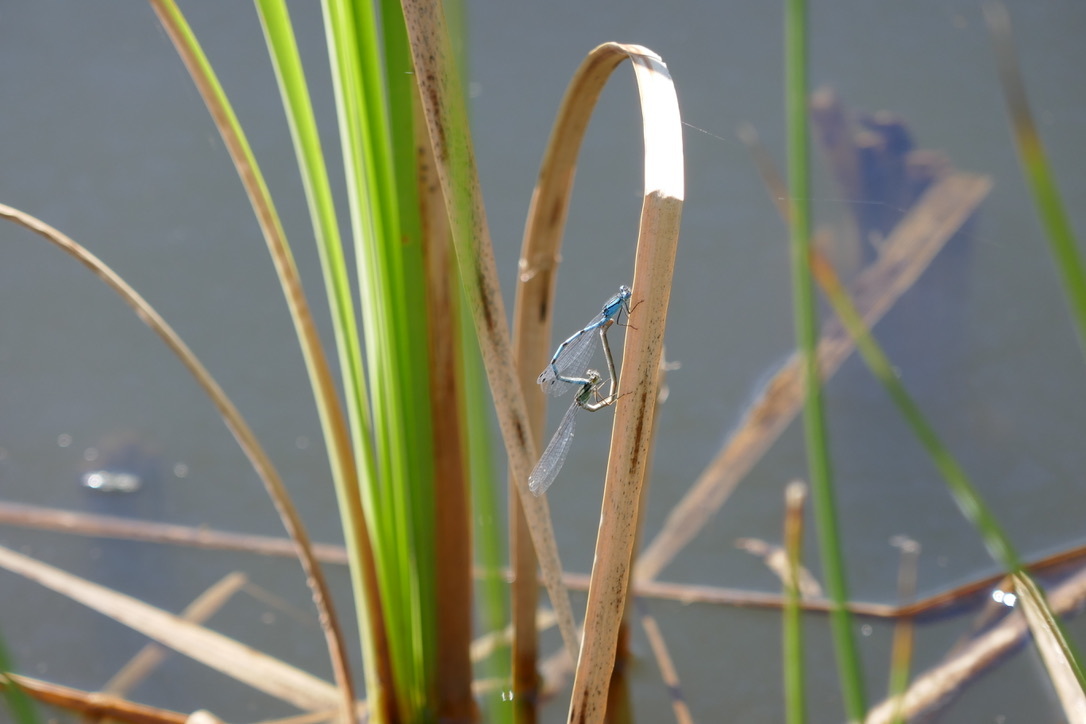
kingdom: Animalia
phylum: Arthropoda
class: Insecta
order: Odonata
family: Coenagrionidae
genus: Enallagma
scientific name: Enallagma cyathigerum
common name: Common blue damselfly
